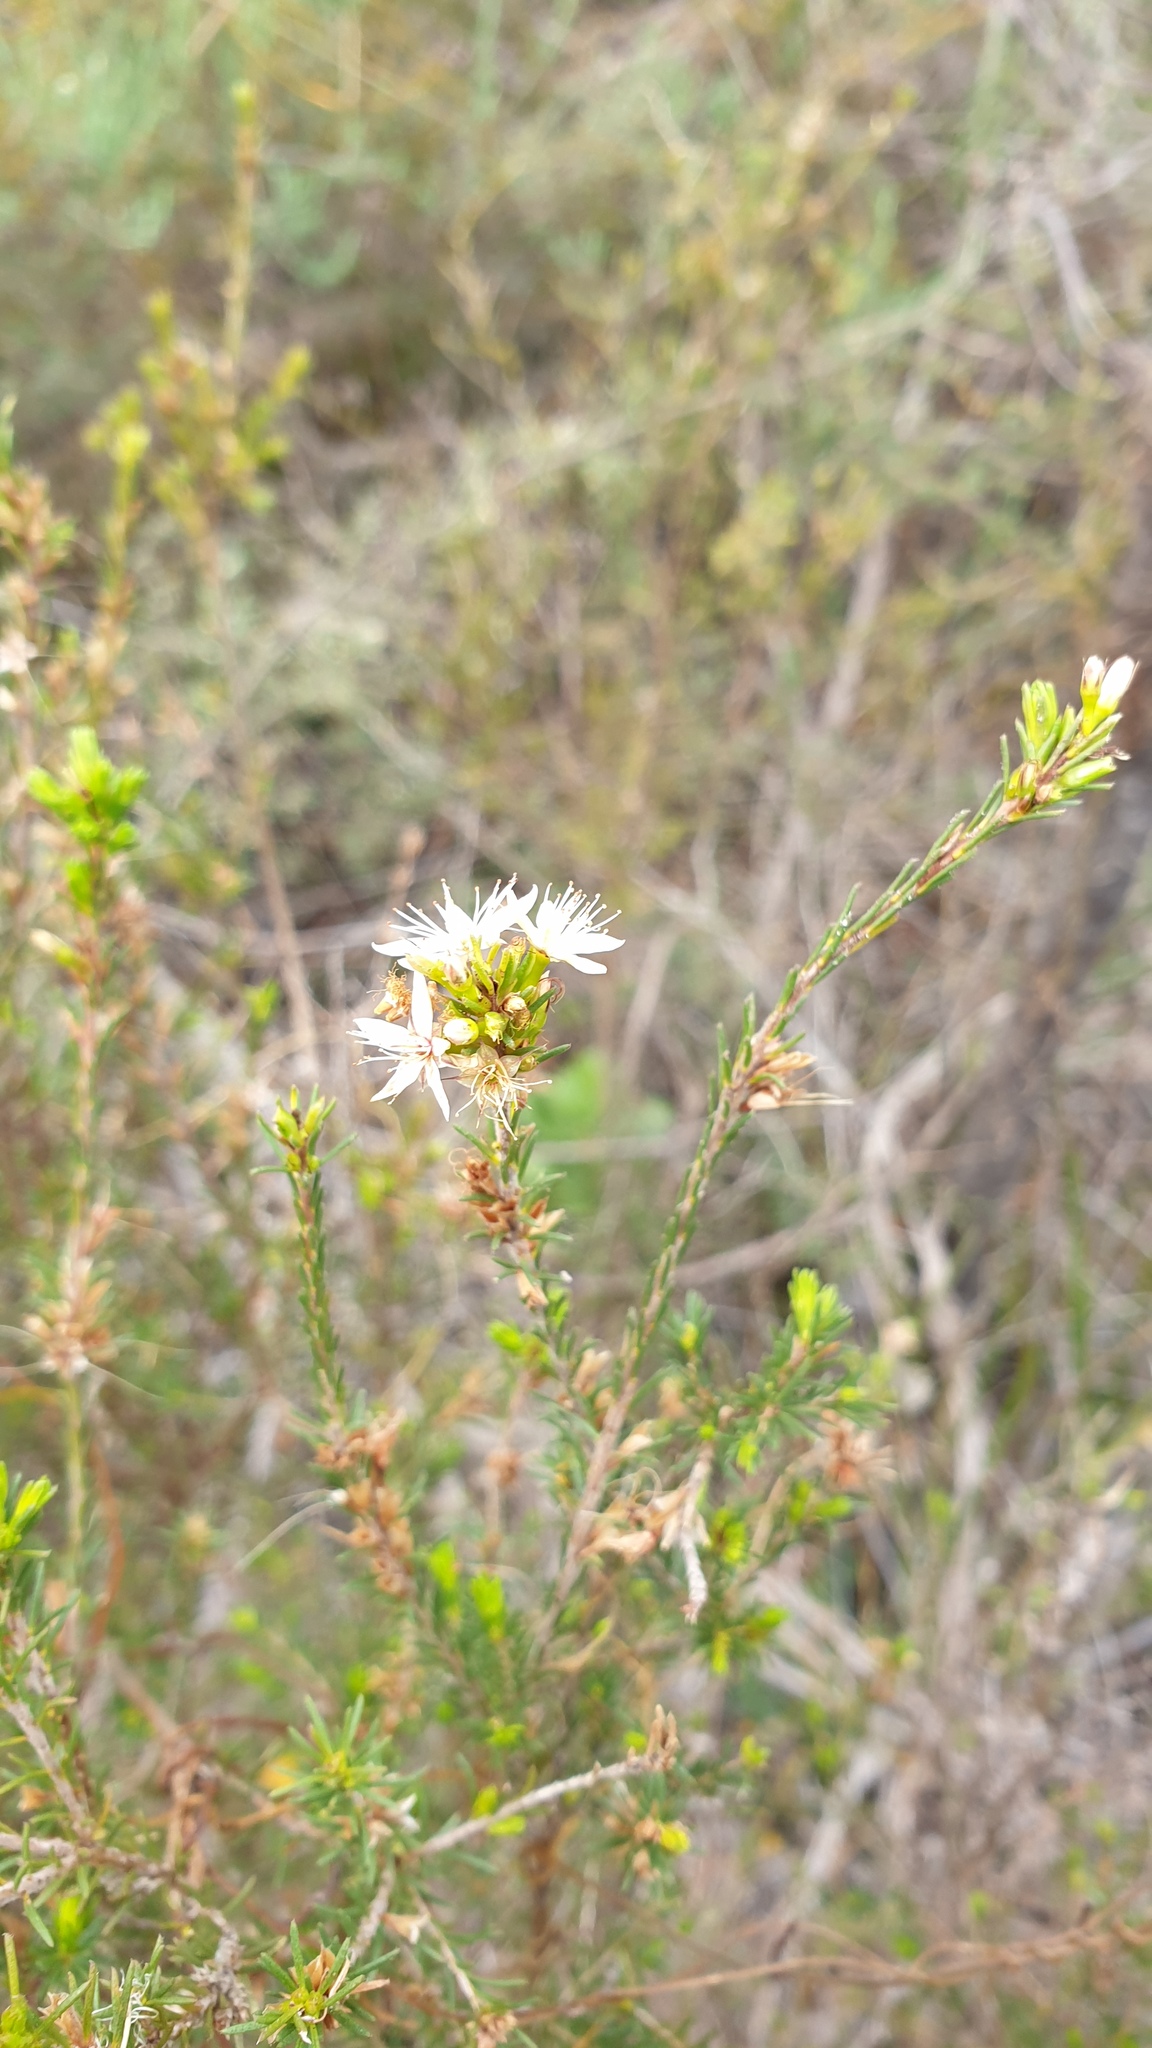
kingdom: Plantae
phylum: Tracheophyta
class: Magnoliopsida
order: Myrtales
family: Myrtaceae
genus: Calytrix
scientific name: Calytrix tetragona
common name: Common fringe myrtle
